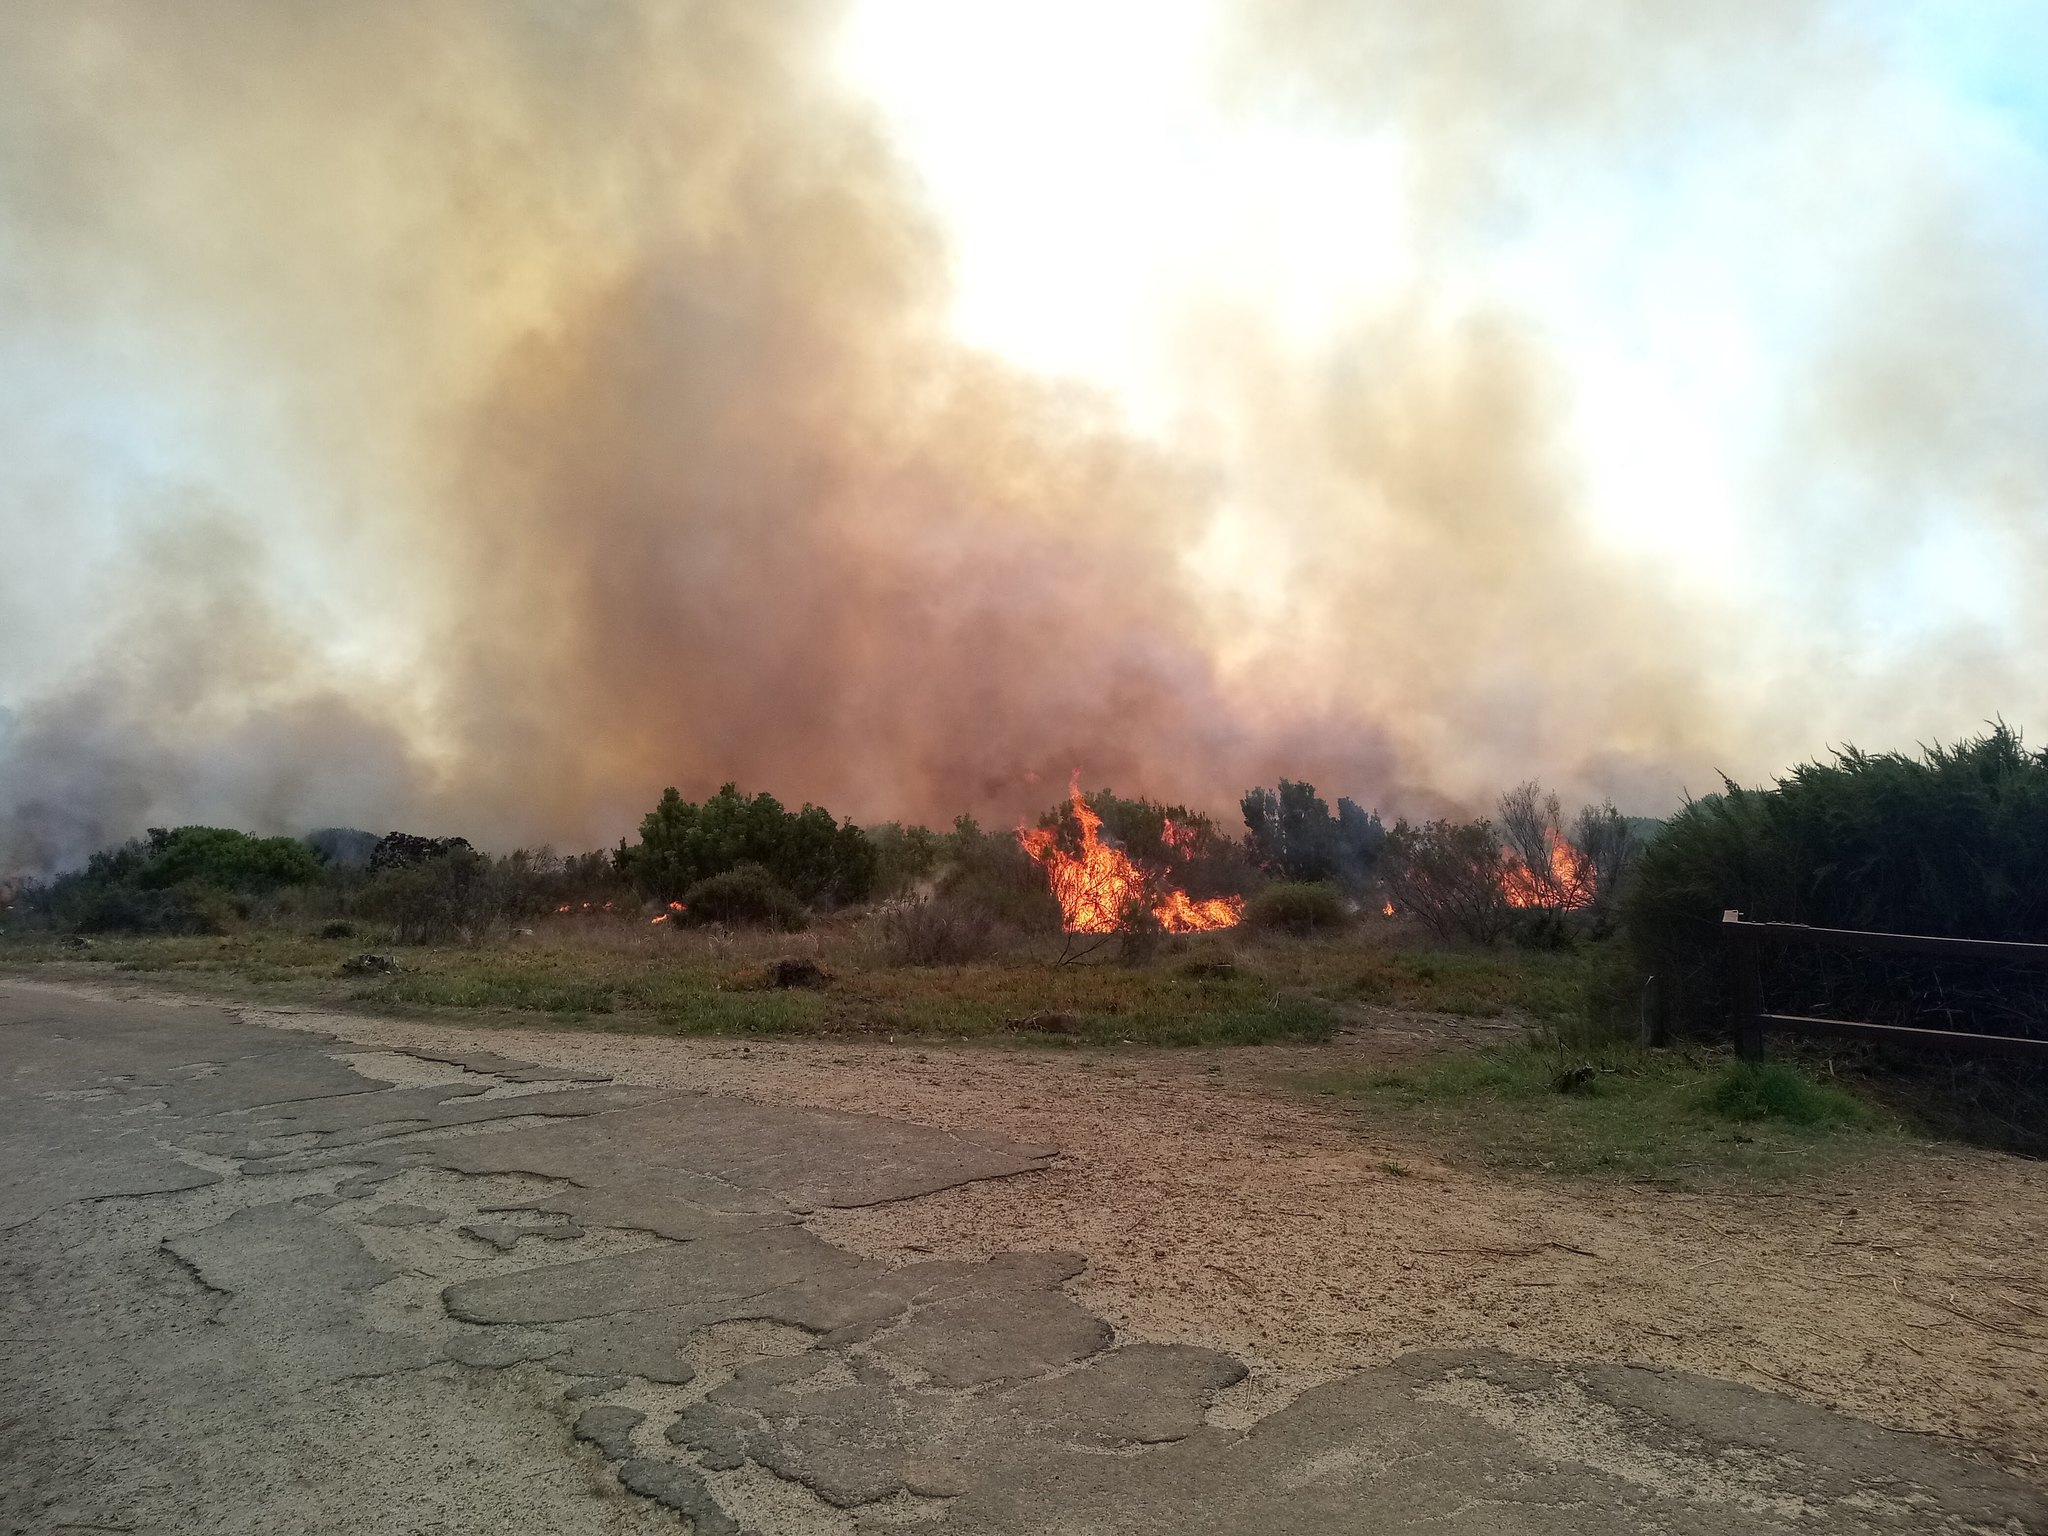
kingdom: Plantae
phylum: Tracheophyta
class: Magnoliopsida
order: Proteales
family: Proteaceae
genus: Protea
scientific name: Protea repens
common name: Sugarbush
